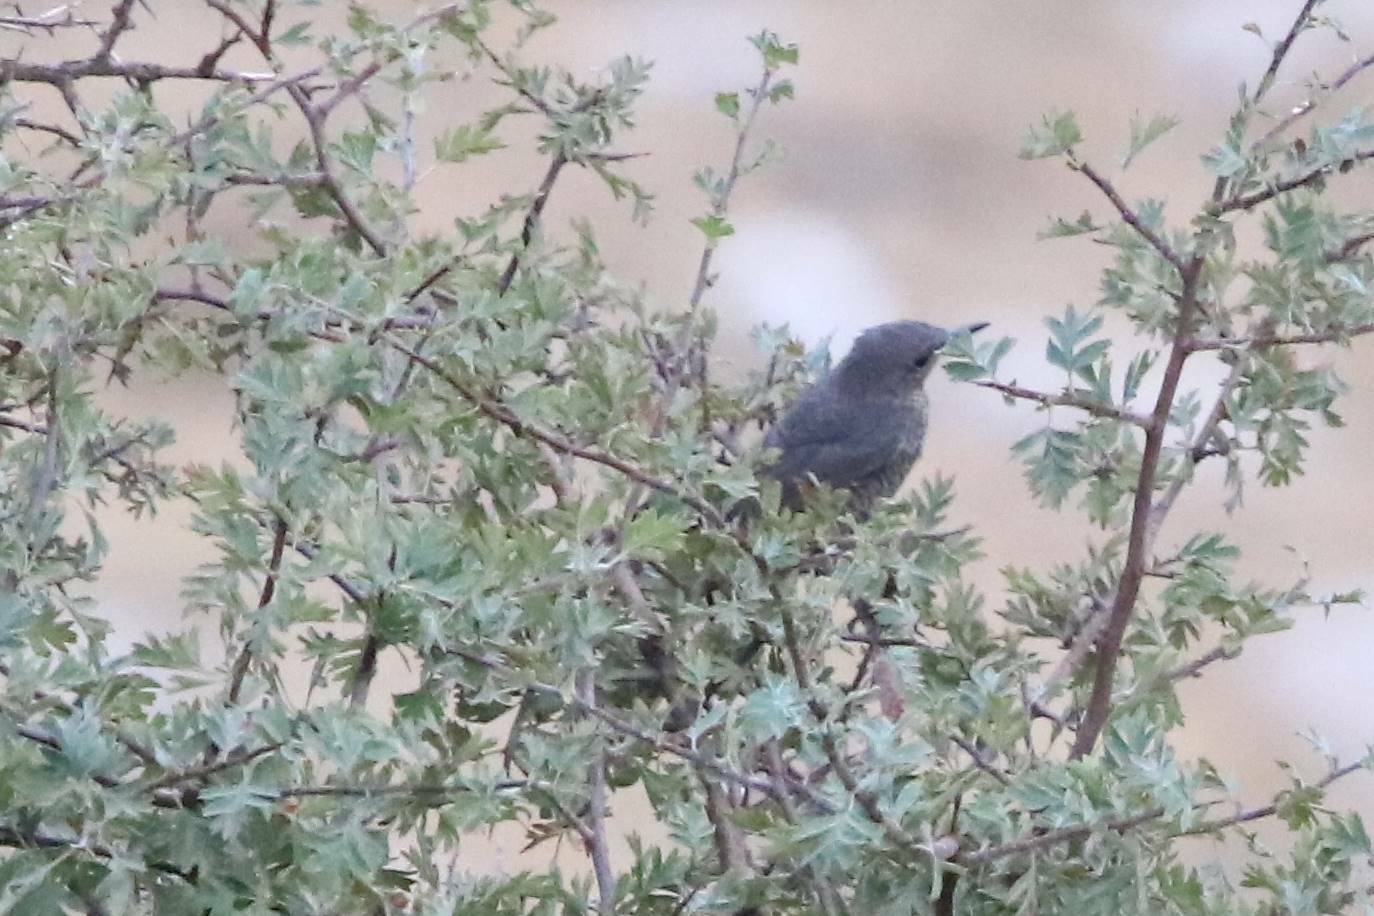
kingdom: Animalia
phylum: Chordata
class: Aves
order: Passeriformes
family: Muscicapidae
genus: Monticola
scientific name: Monticola solitarius
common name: Blue rock thrush
